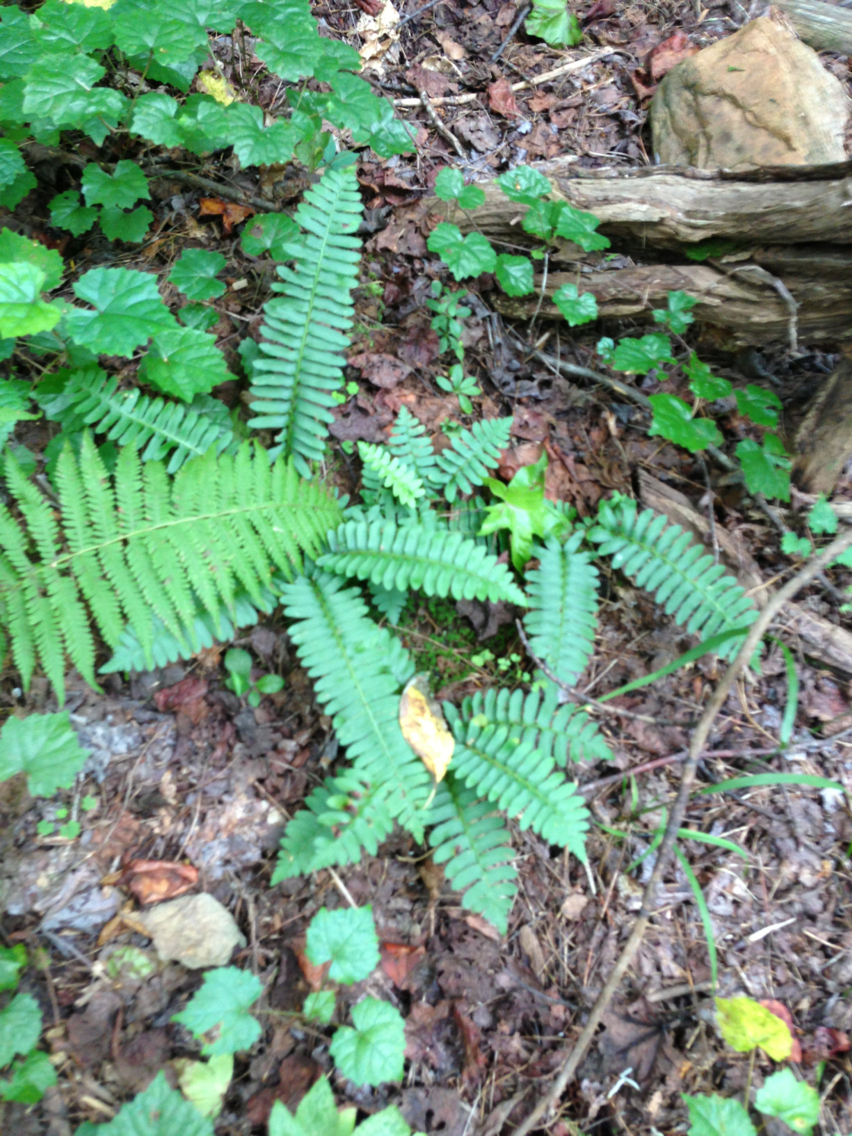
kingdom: Plantae
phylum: Tracheophyta
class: Polypodiopsida
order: Polypodiales
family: Dryopteridaceae
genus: Polystichum
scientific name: Polystichum acrostichoides
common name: Christmas fern
